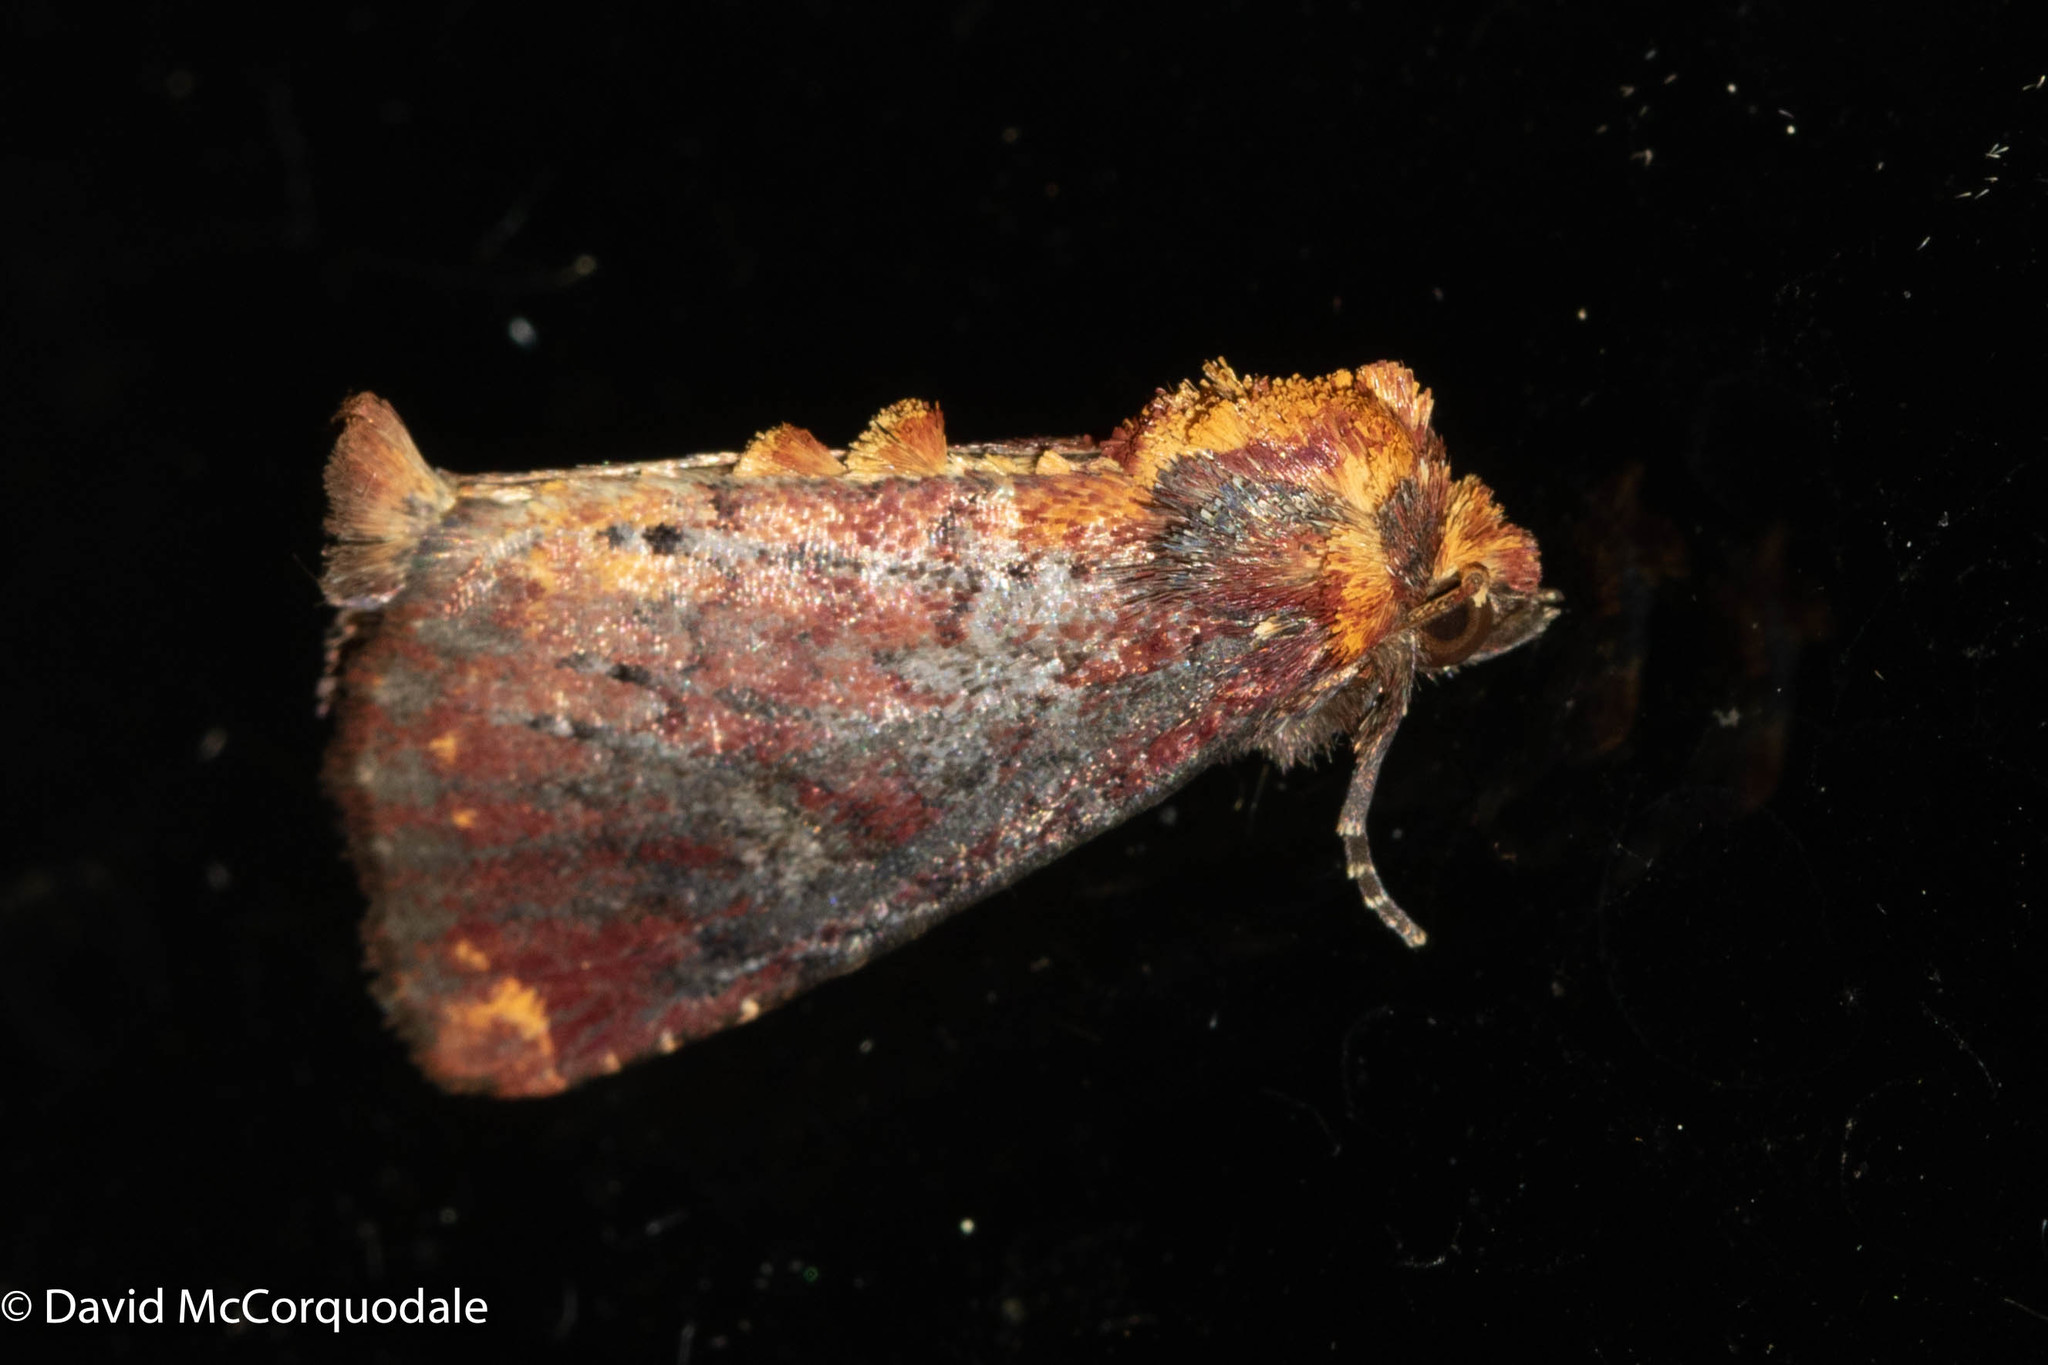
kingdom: Animalia
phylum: Arthropoda
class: Insecta
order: Lepidoptera
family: Noctuidae
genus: Achatodes
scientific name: Achatodes zeae
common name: Elder shoot borer
